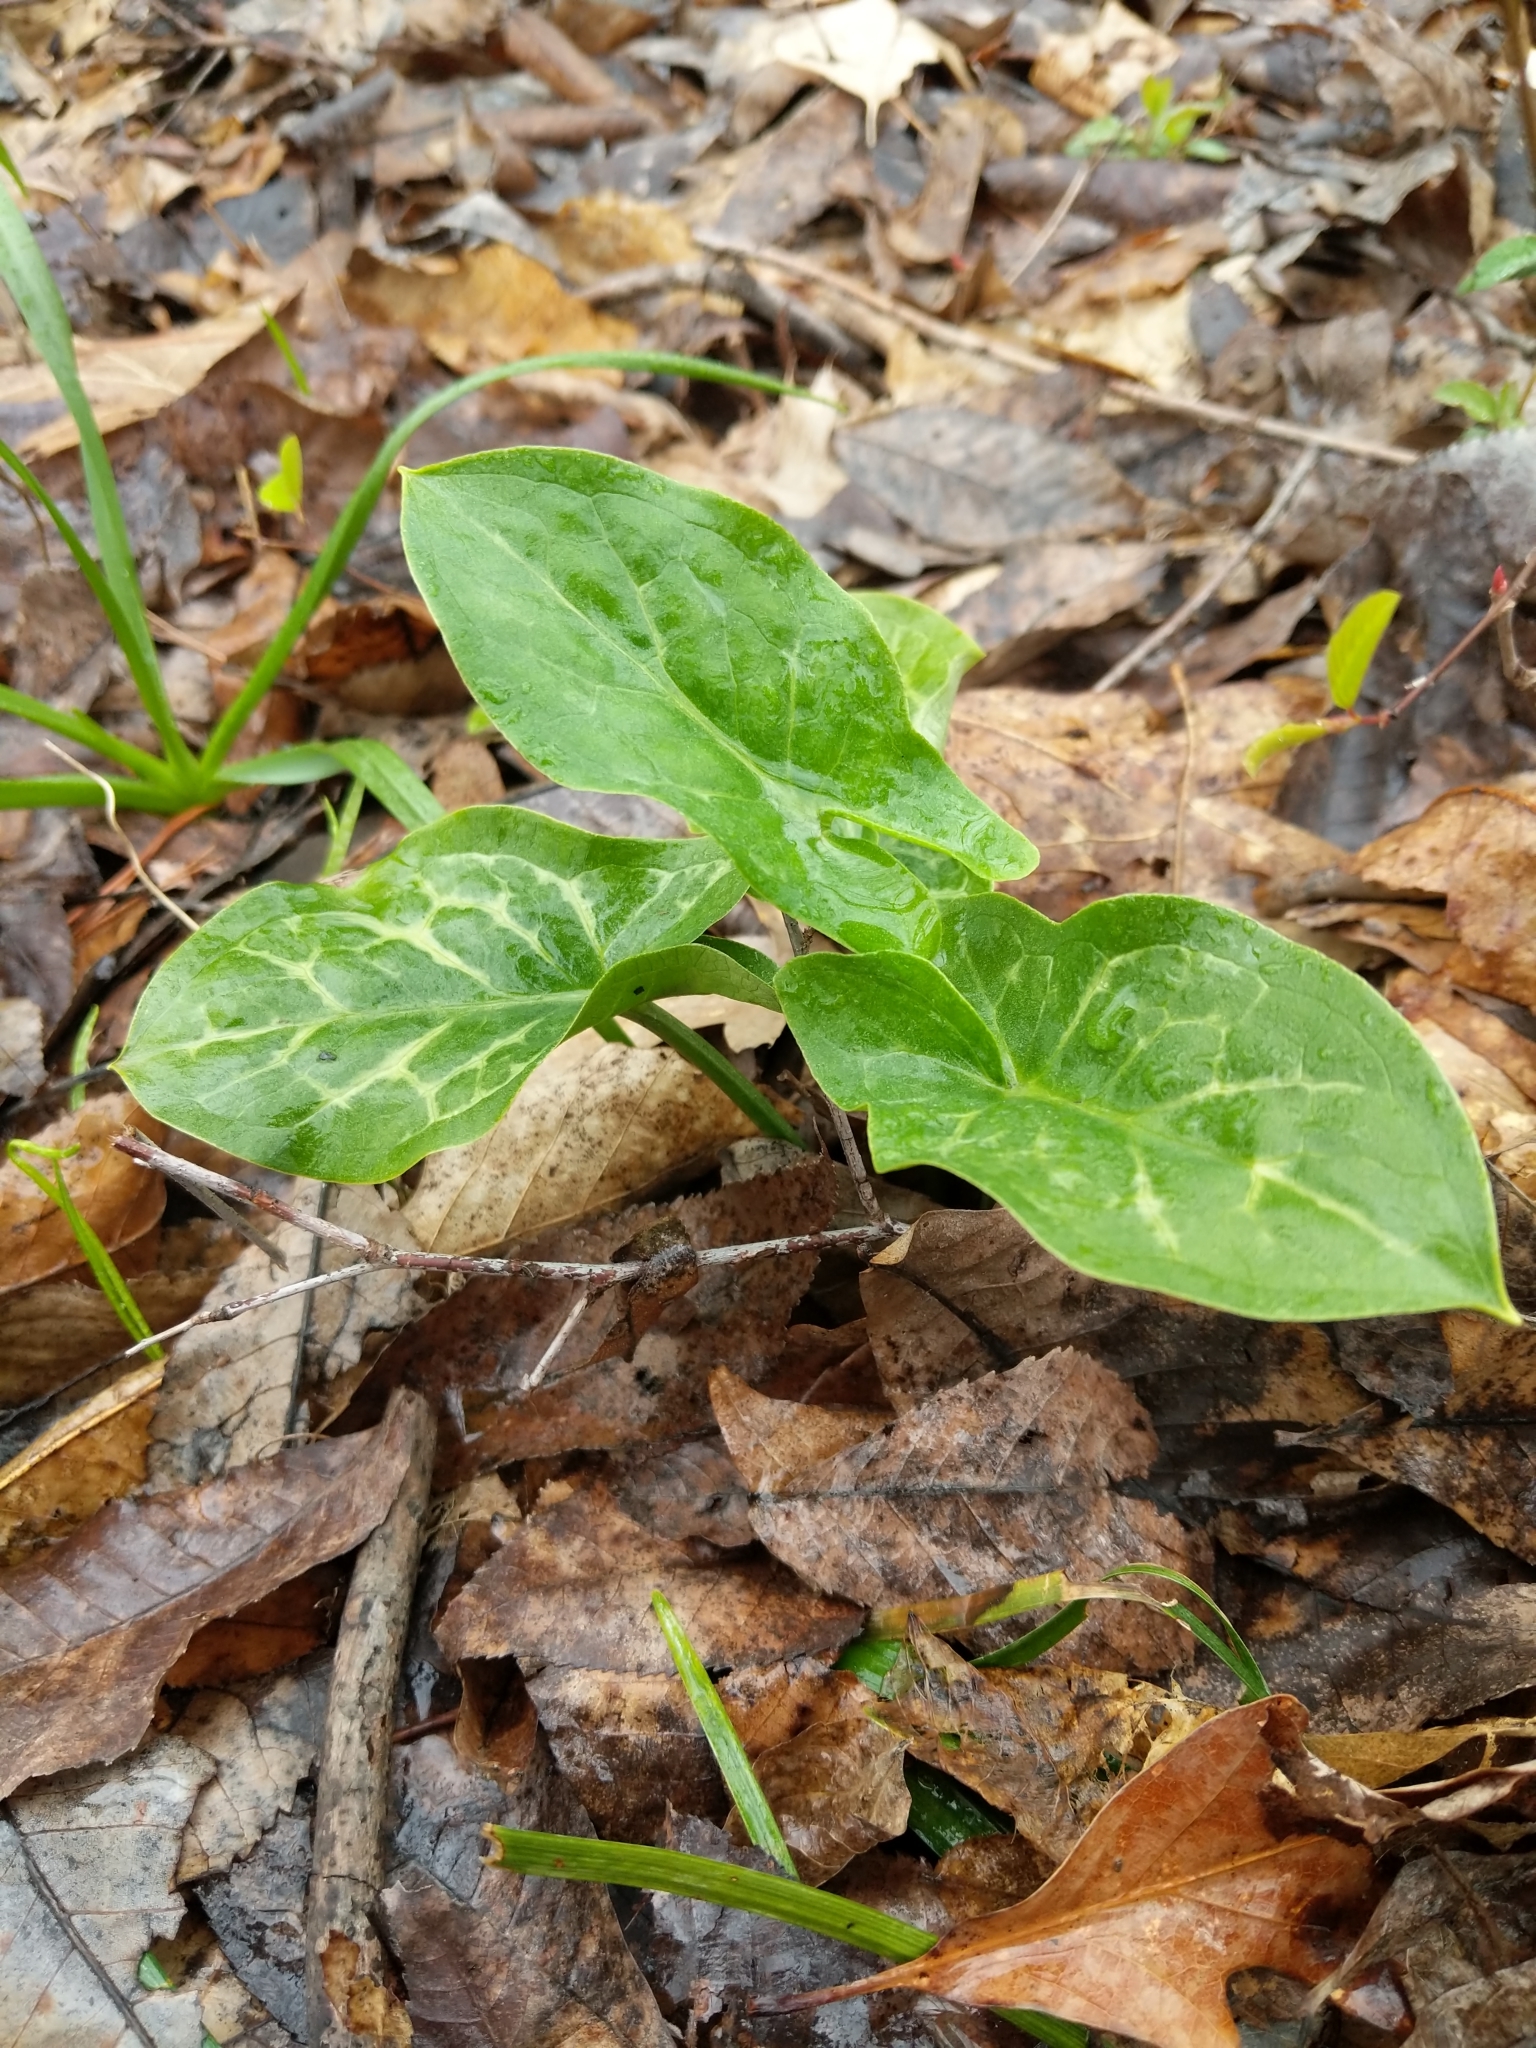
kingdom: Plantae
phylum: Tracheophyta
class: Liliopsida
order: Alismatales
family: Araceae
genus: Arum
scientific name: Arum italicum
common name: Italian lords-and-ladies
